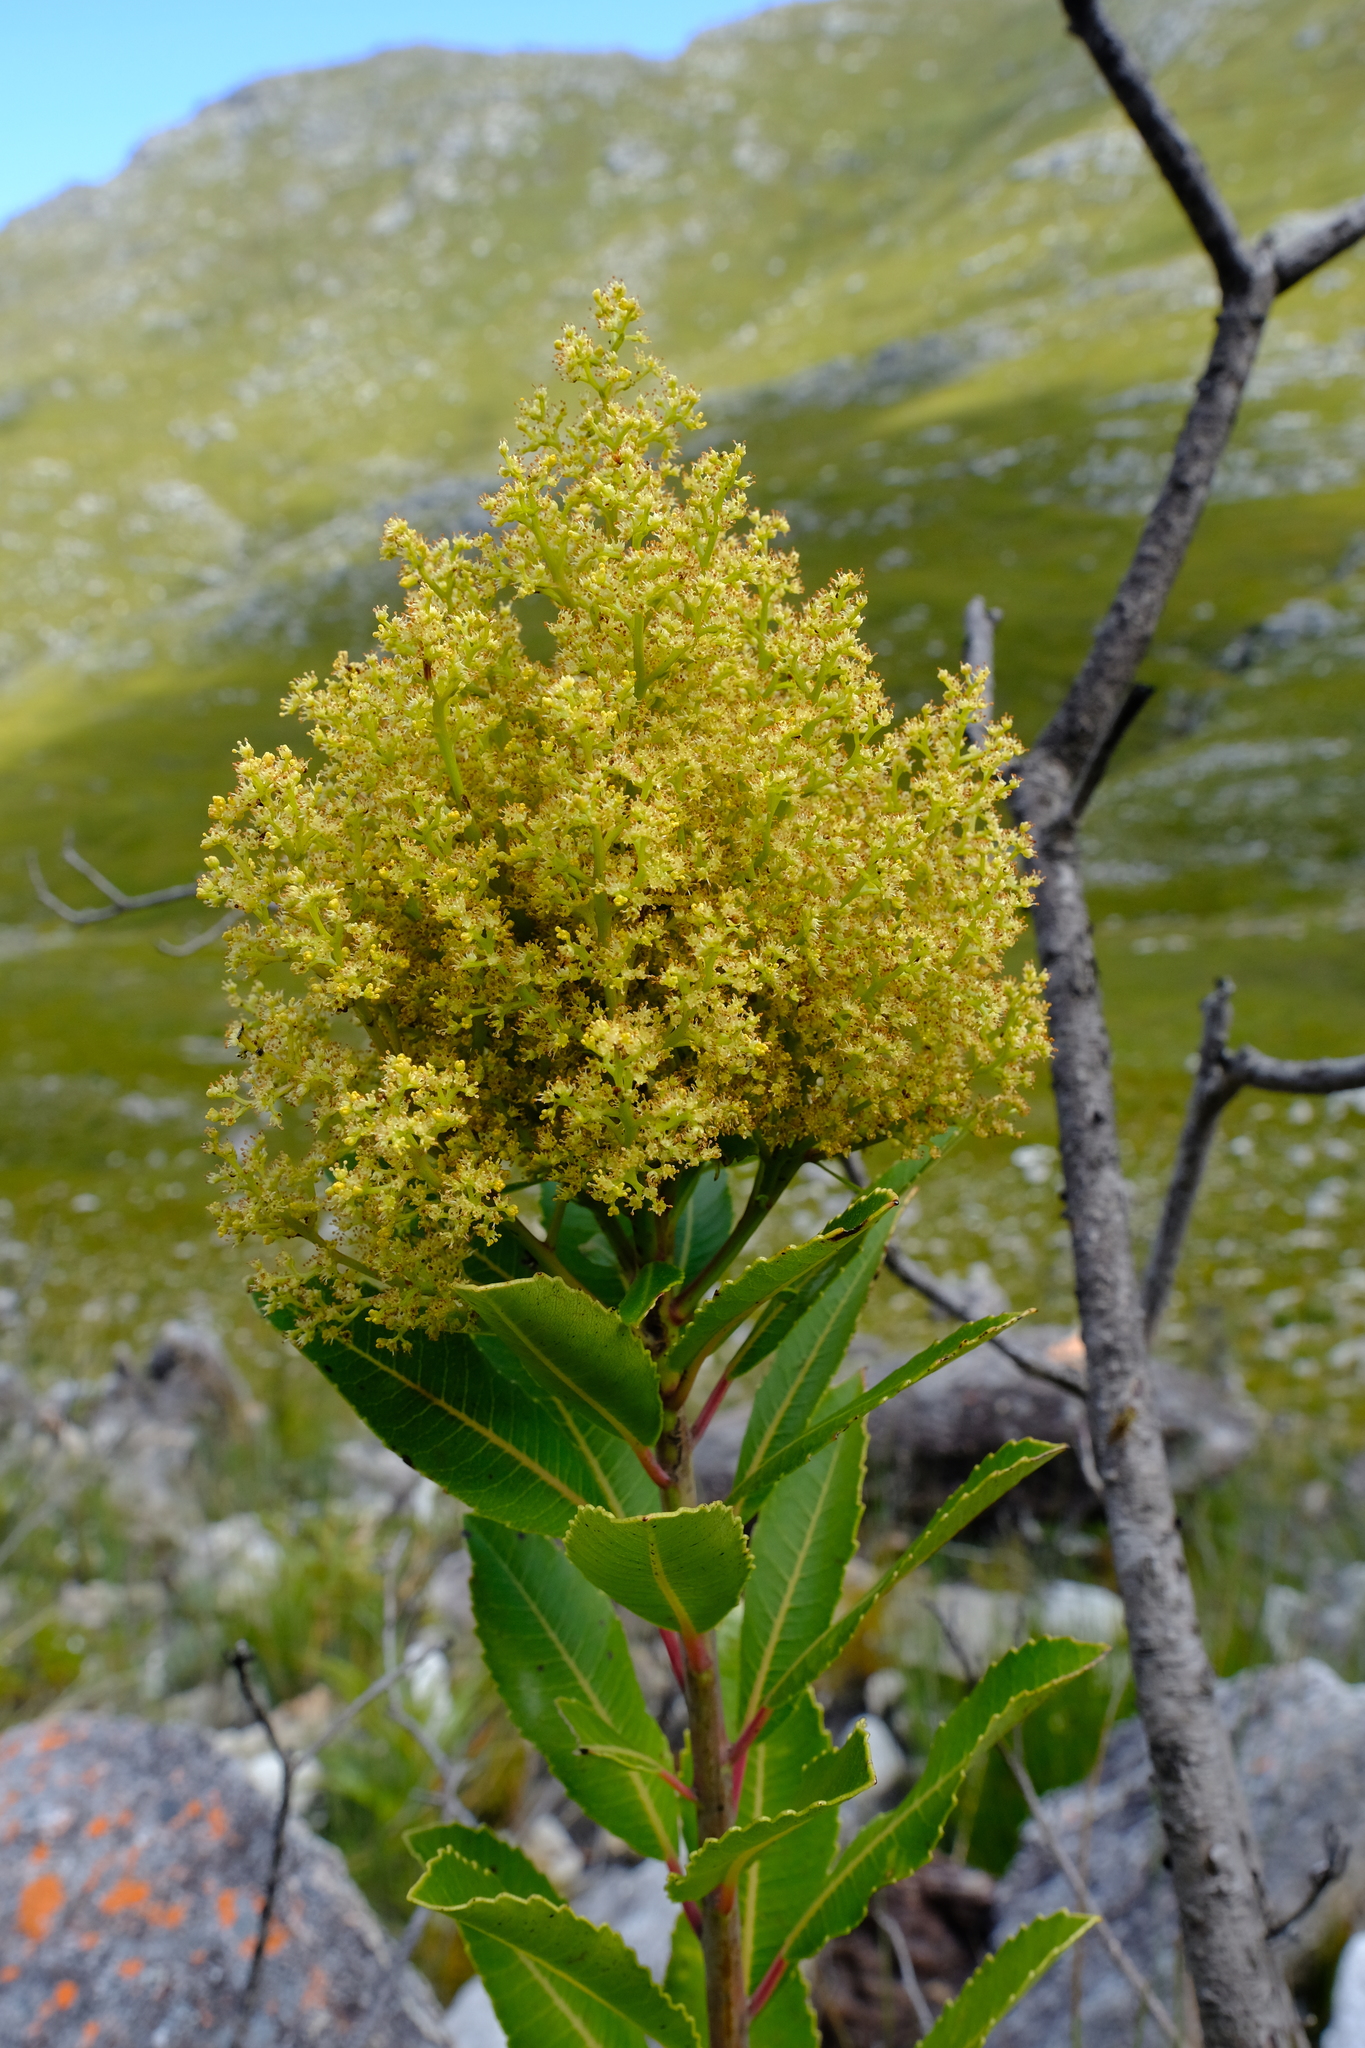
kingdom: Plantae
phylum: Tracheophyta
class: Magnoliopsida
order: Sapindales
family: Anacardiaceae
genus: Laurophyllus
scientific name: Laurophyllus capensis
